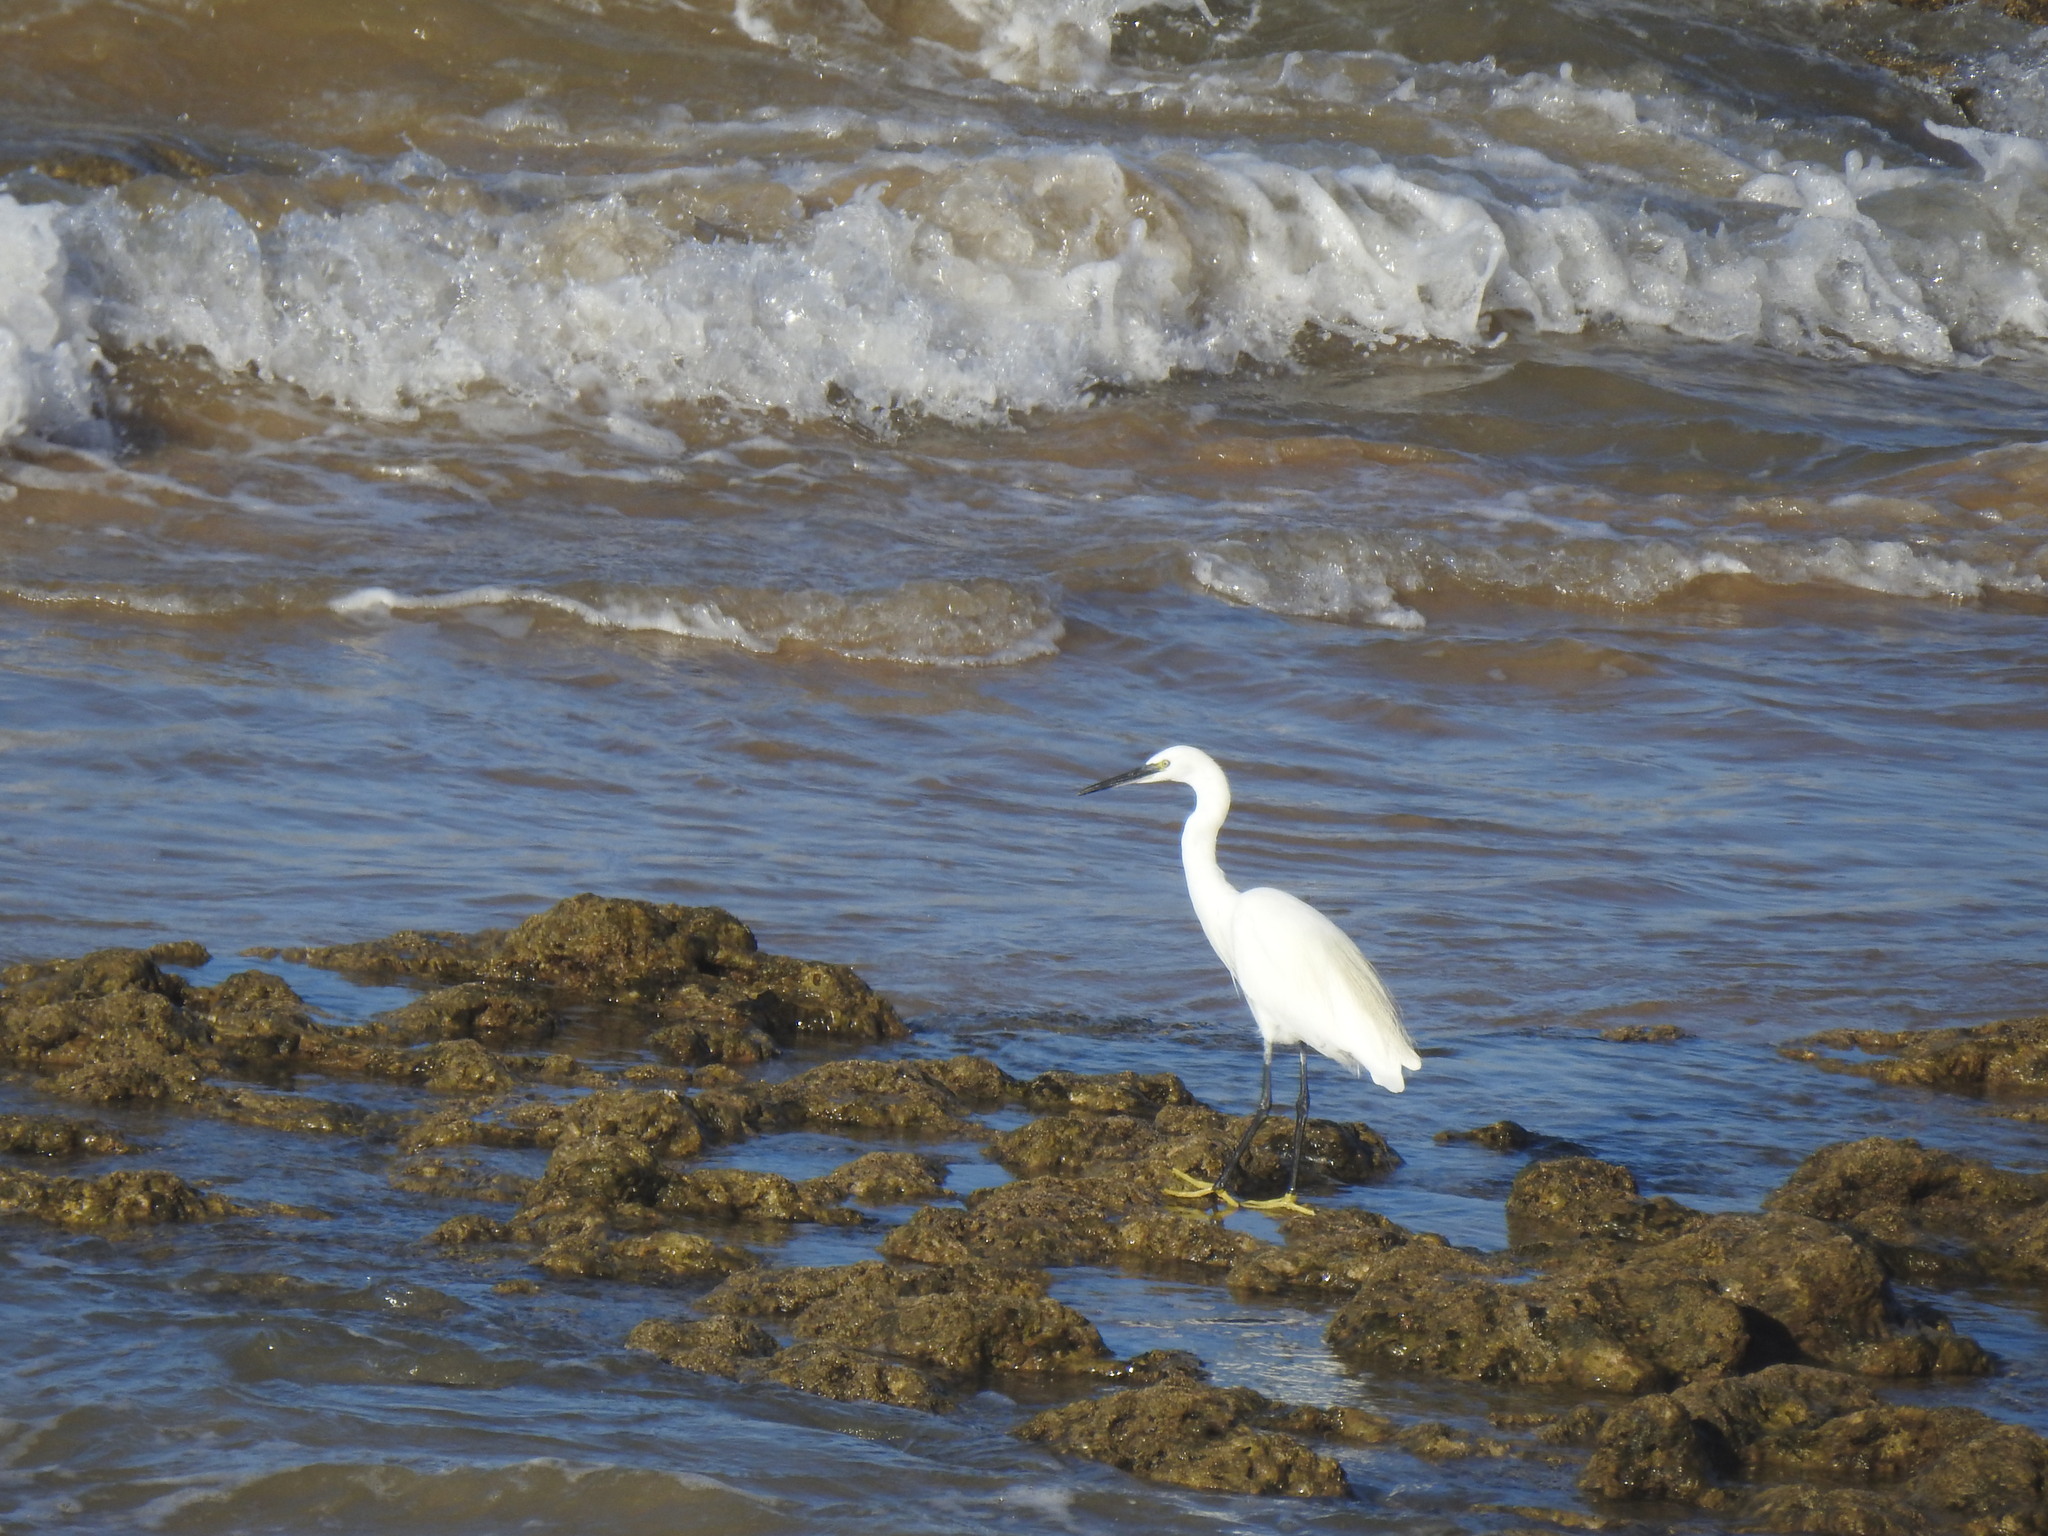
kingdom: Animalia
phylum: Chordata
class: Aves
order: Pelecaniformes
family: Ardeidae
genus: Egretta
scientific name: Egretta garzetta
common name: Little egret
